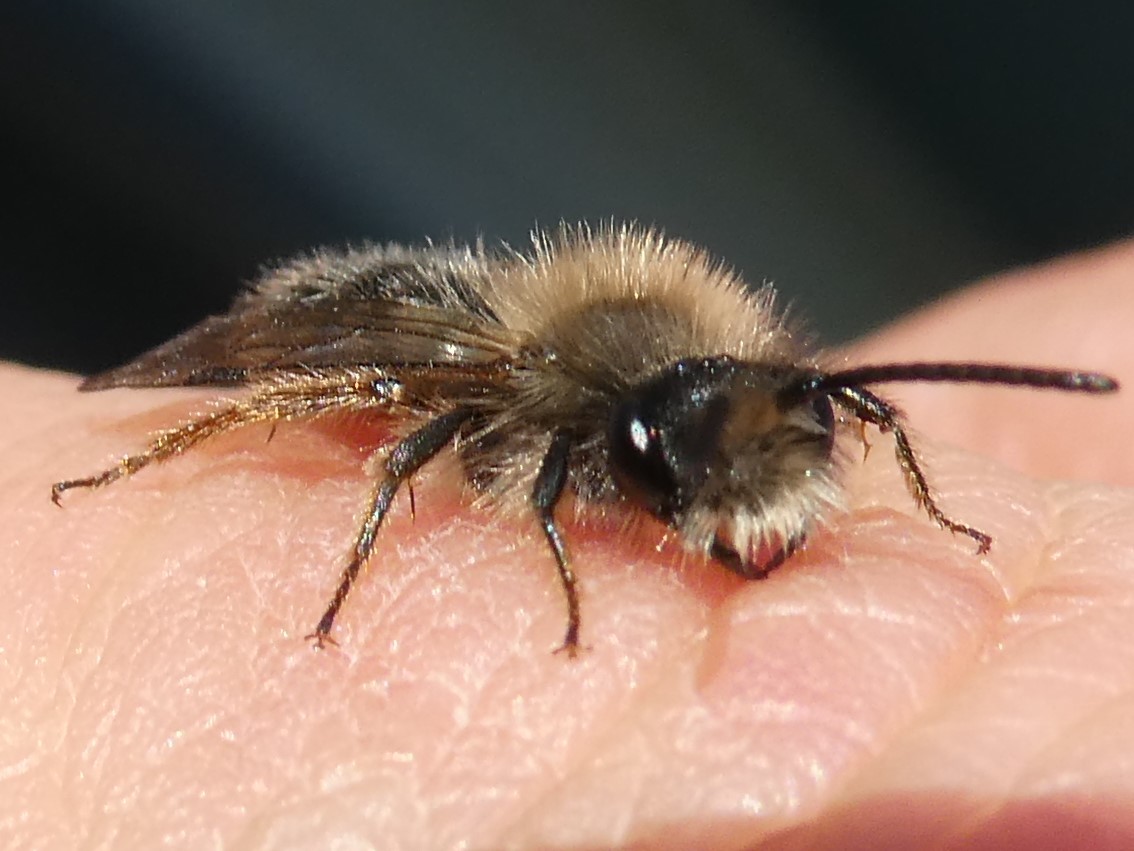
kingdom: Animalia
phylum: Arthropoda
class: Insecta
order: Hymenoptera
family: Andrenidae
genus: Andrena
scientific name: Andrena frigida
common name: Frigid mining bee
